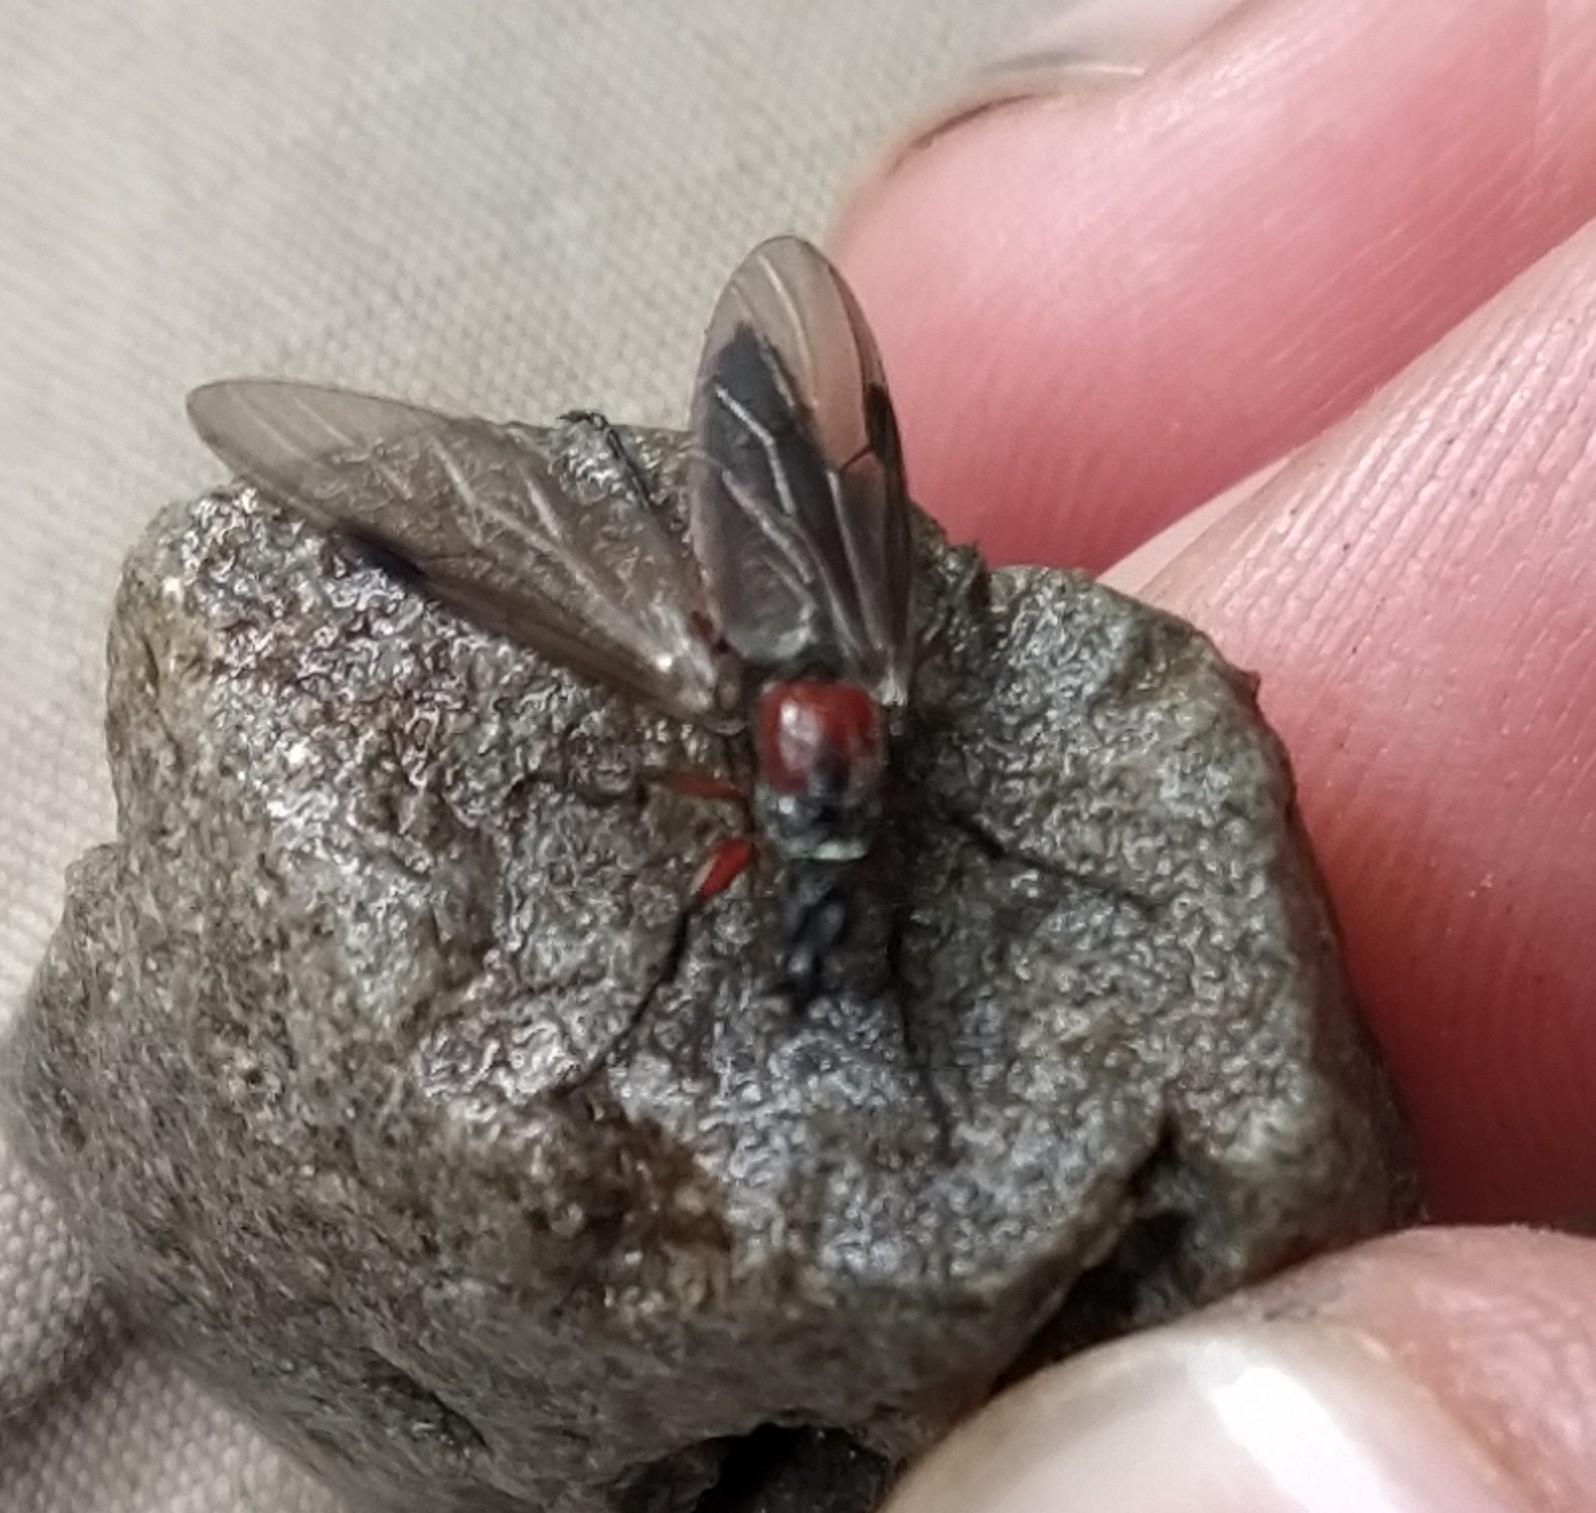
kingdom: Animalia
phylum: Arthropoda
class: Insecta
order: Diptera
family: Bibionidae
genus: Dilophus
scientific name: Dilophus nigrostigma
